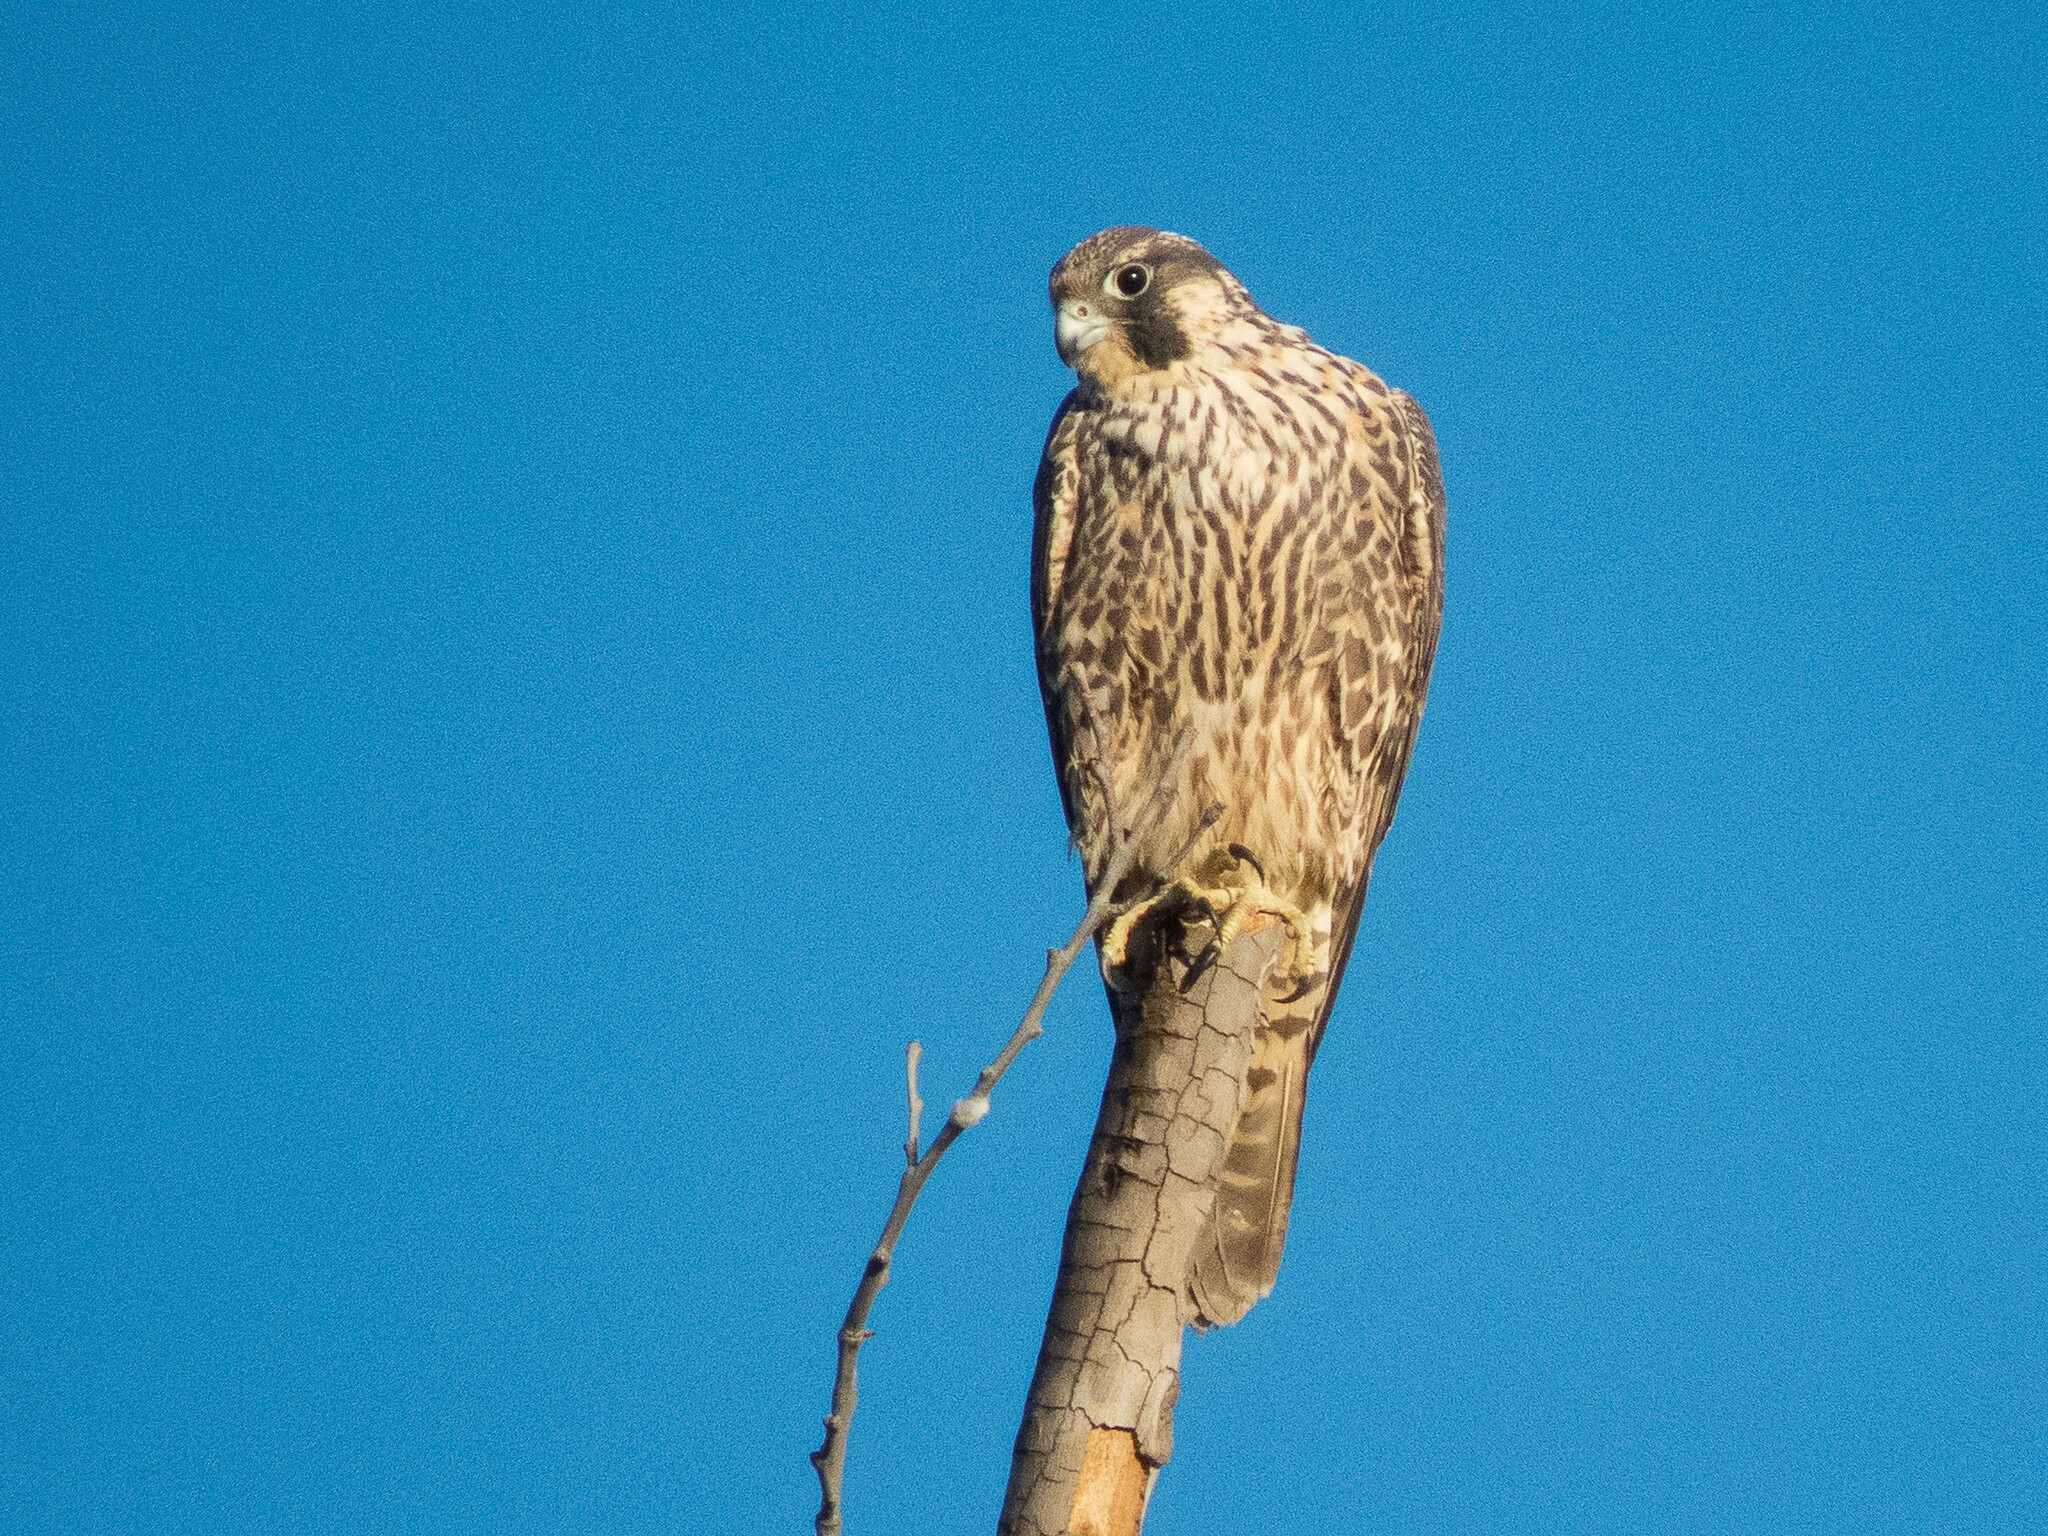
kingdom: Animalia
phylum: Chordata
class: Aves
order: Falconiformes
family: Falconidae
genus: Falco
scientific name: Falco peregrinus
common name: Peregrine falcon
